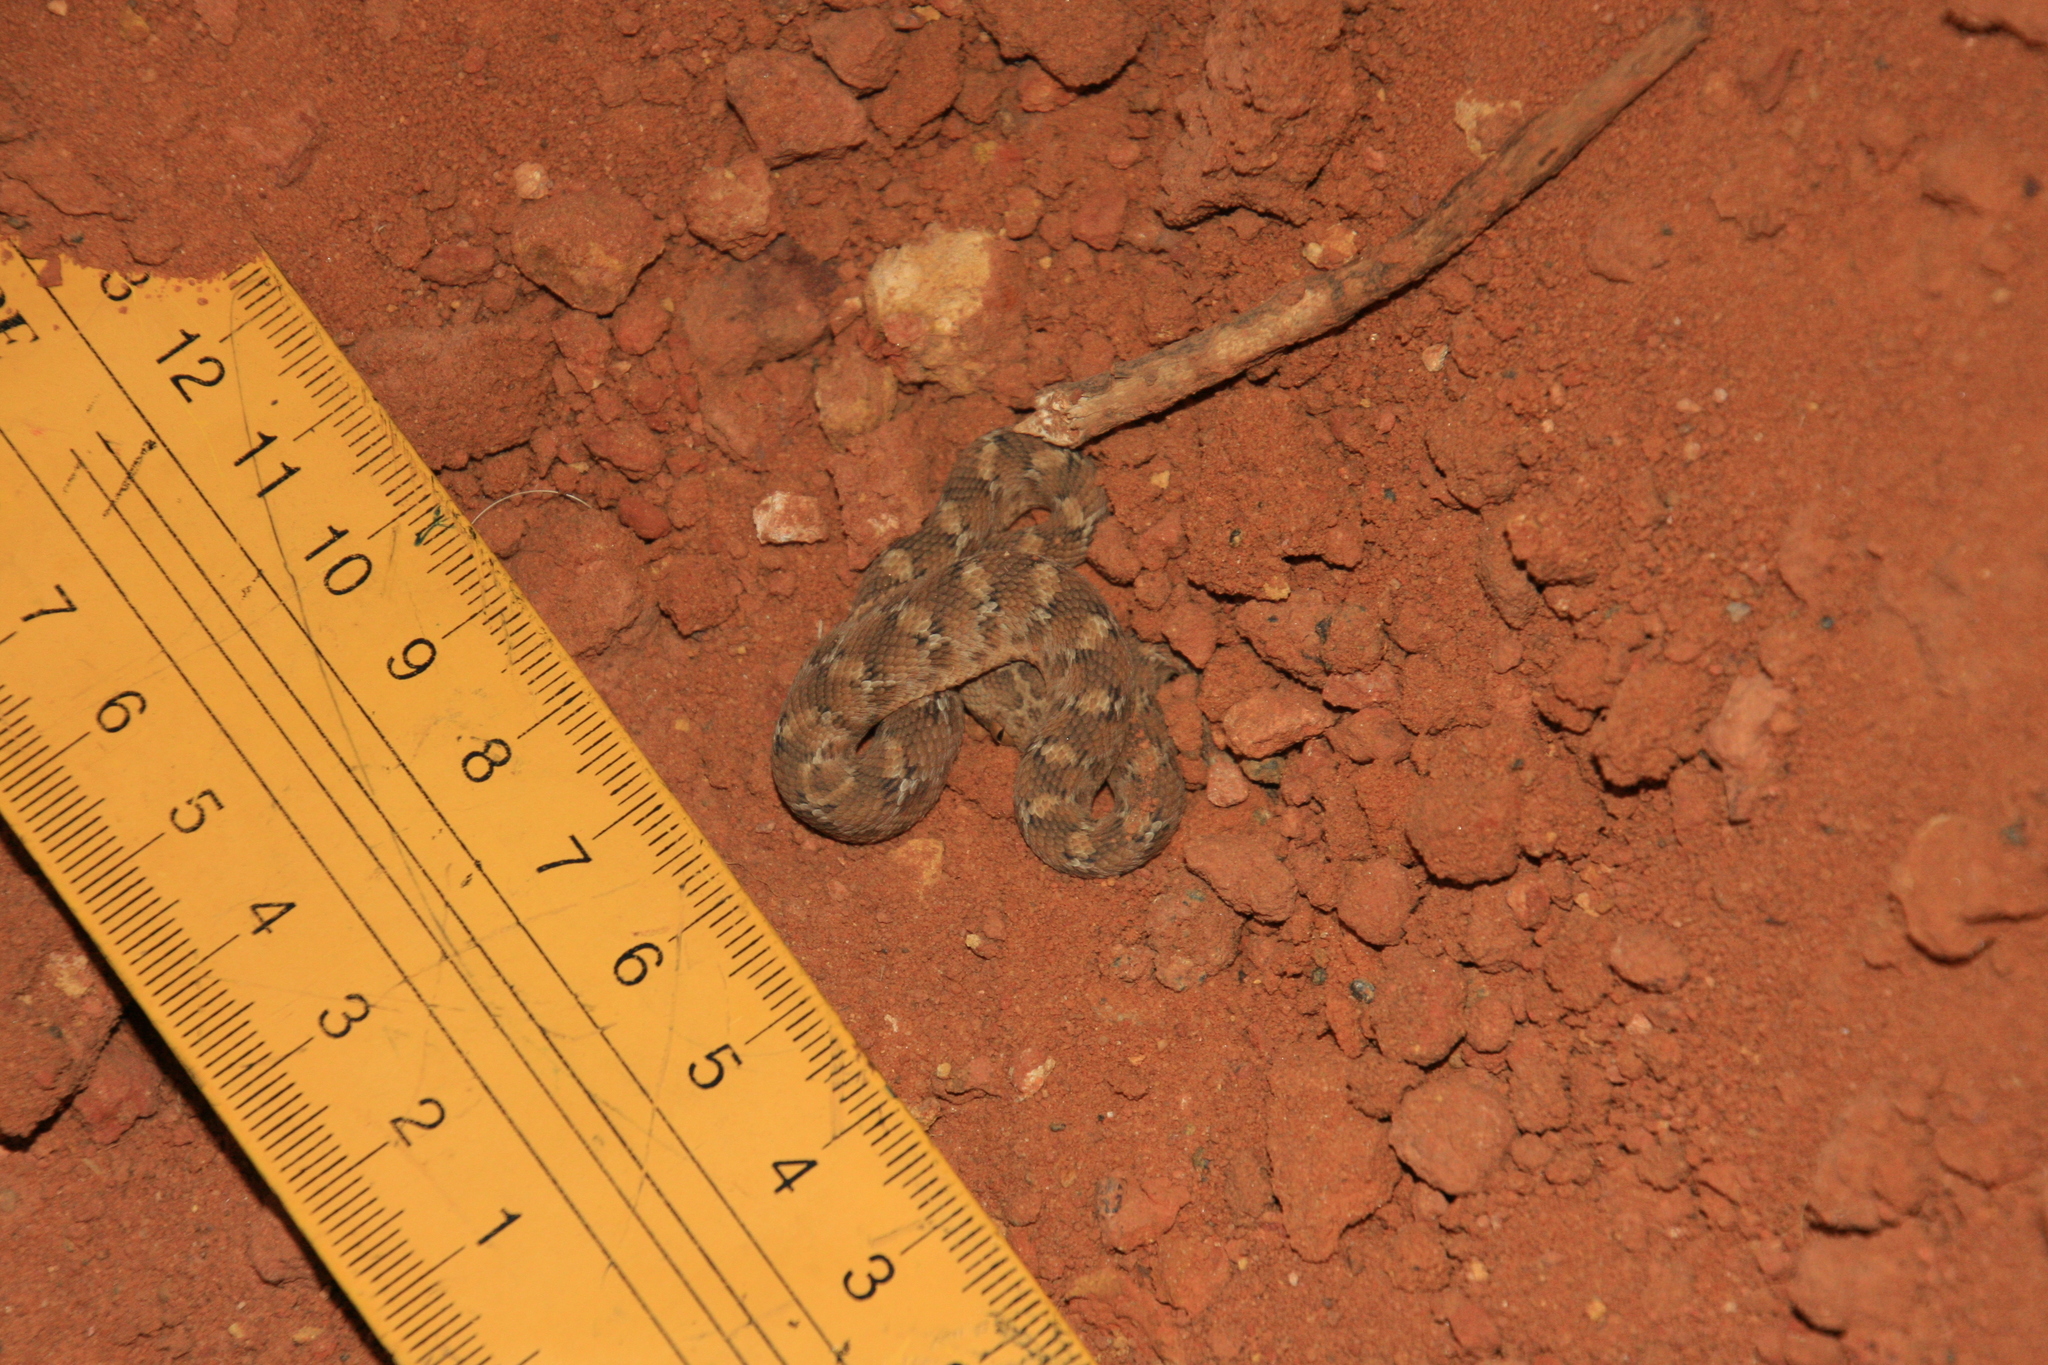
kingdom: Animalia
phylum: Chordata
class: Squamata
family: Viperidae
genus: Echis
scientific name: Echis leucogaster
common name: White-bellied carpet viper
